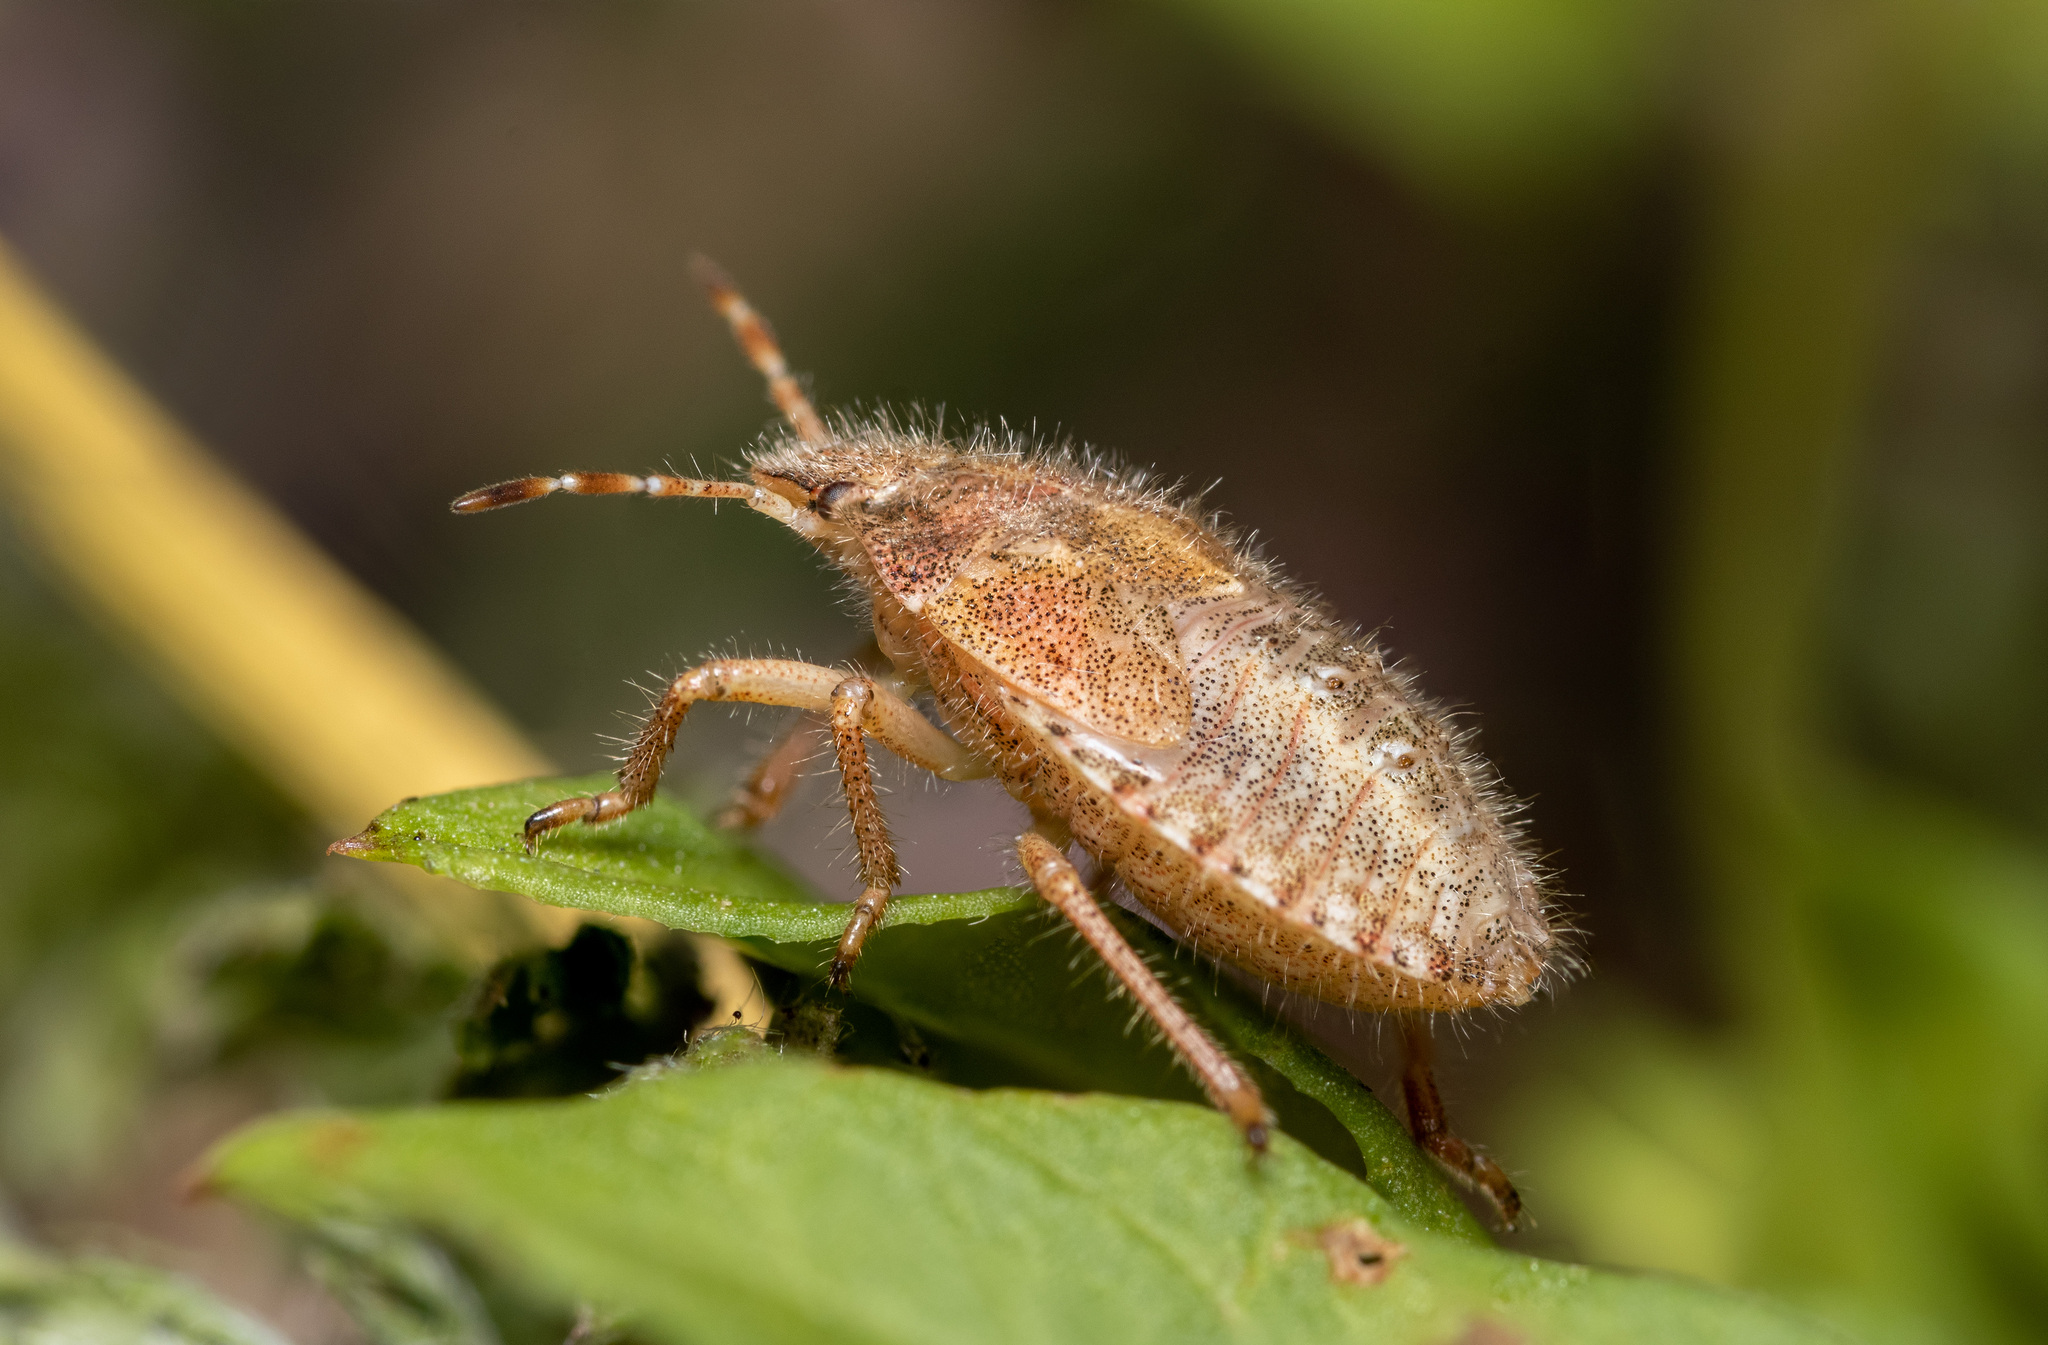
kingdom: Animalia
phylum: Arthropoda
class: Insecta
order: Hemiptera
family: Pentatomidae
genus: Dolycoris
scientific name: Dolycoris baccarum
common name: Sloe bug
